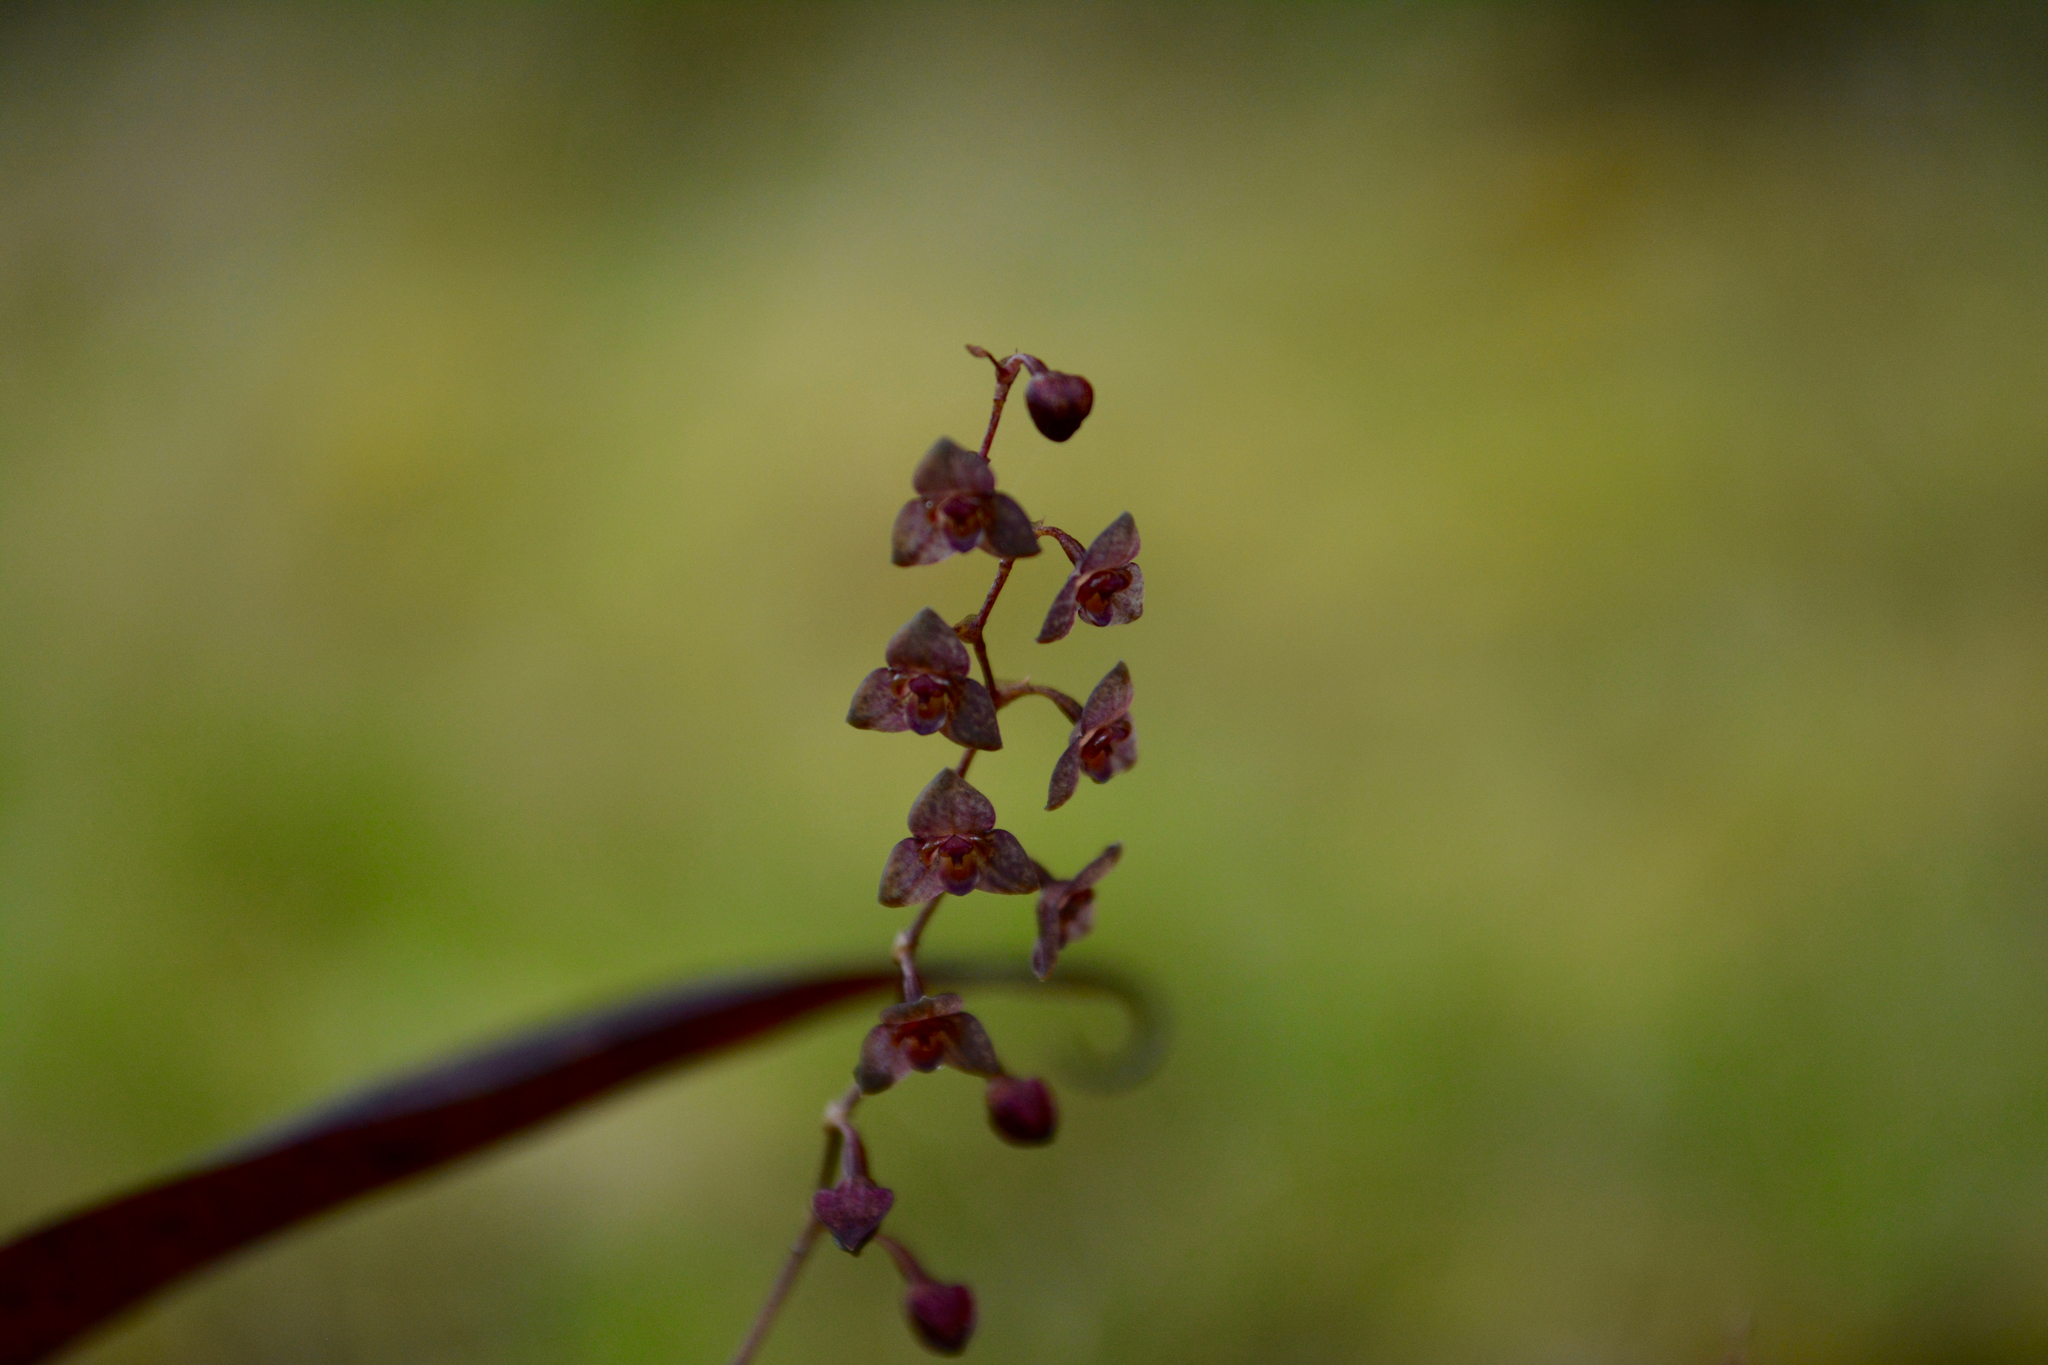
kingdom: Plantae
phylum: Tracheophyta
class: Liliopsida
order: Asparagales
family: Orchidaceae
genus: Stelis
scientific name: Stelis ciliaris
